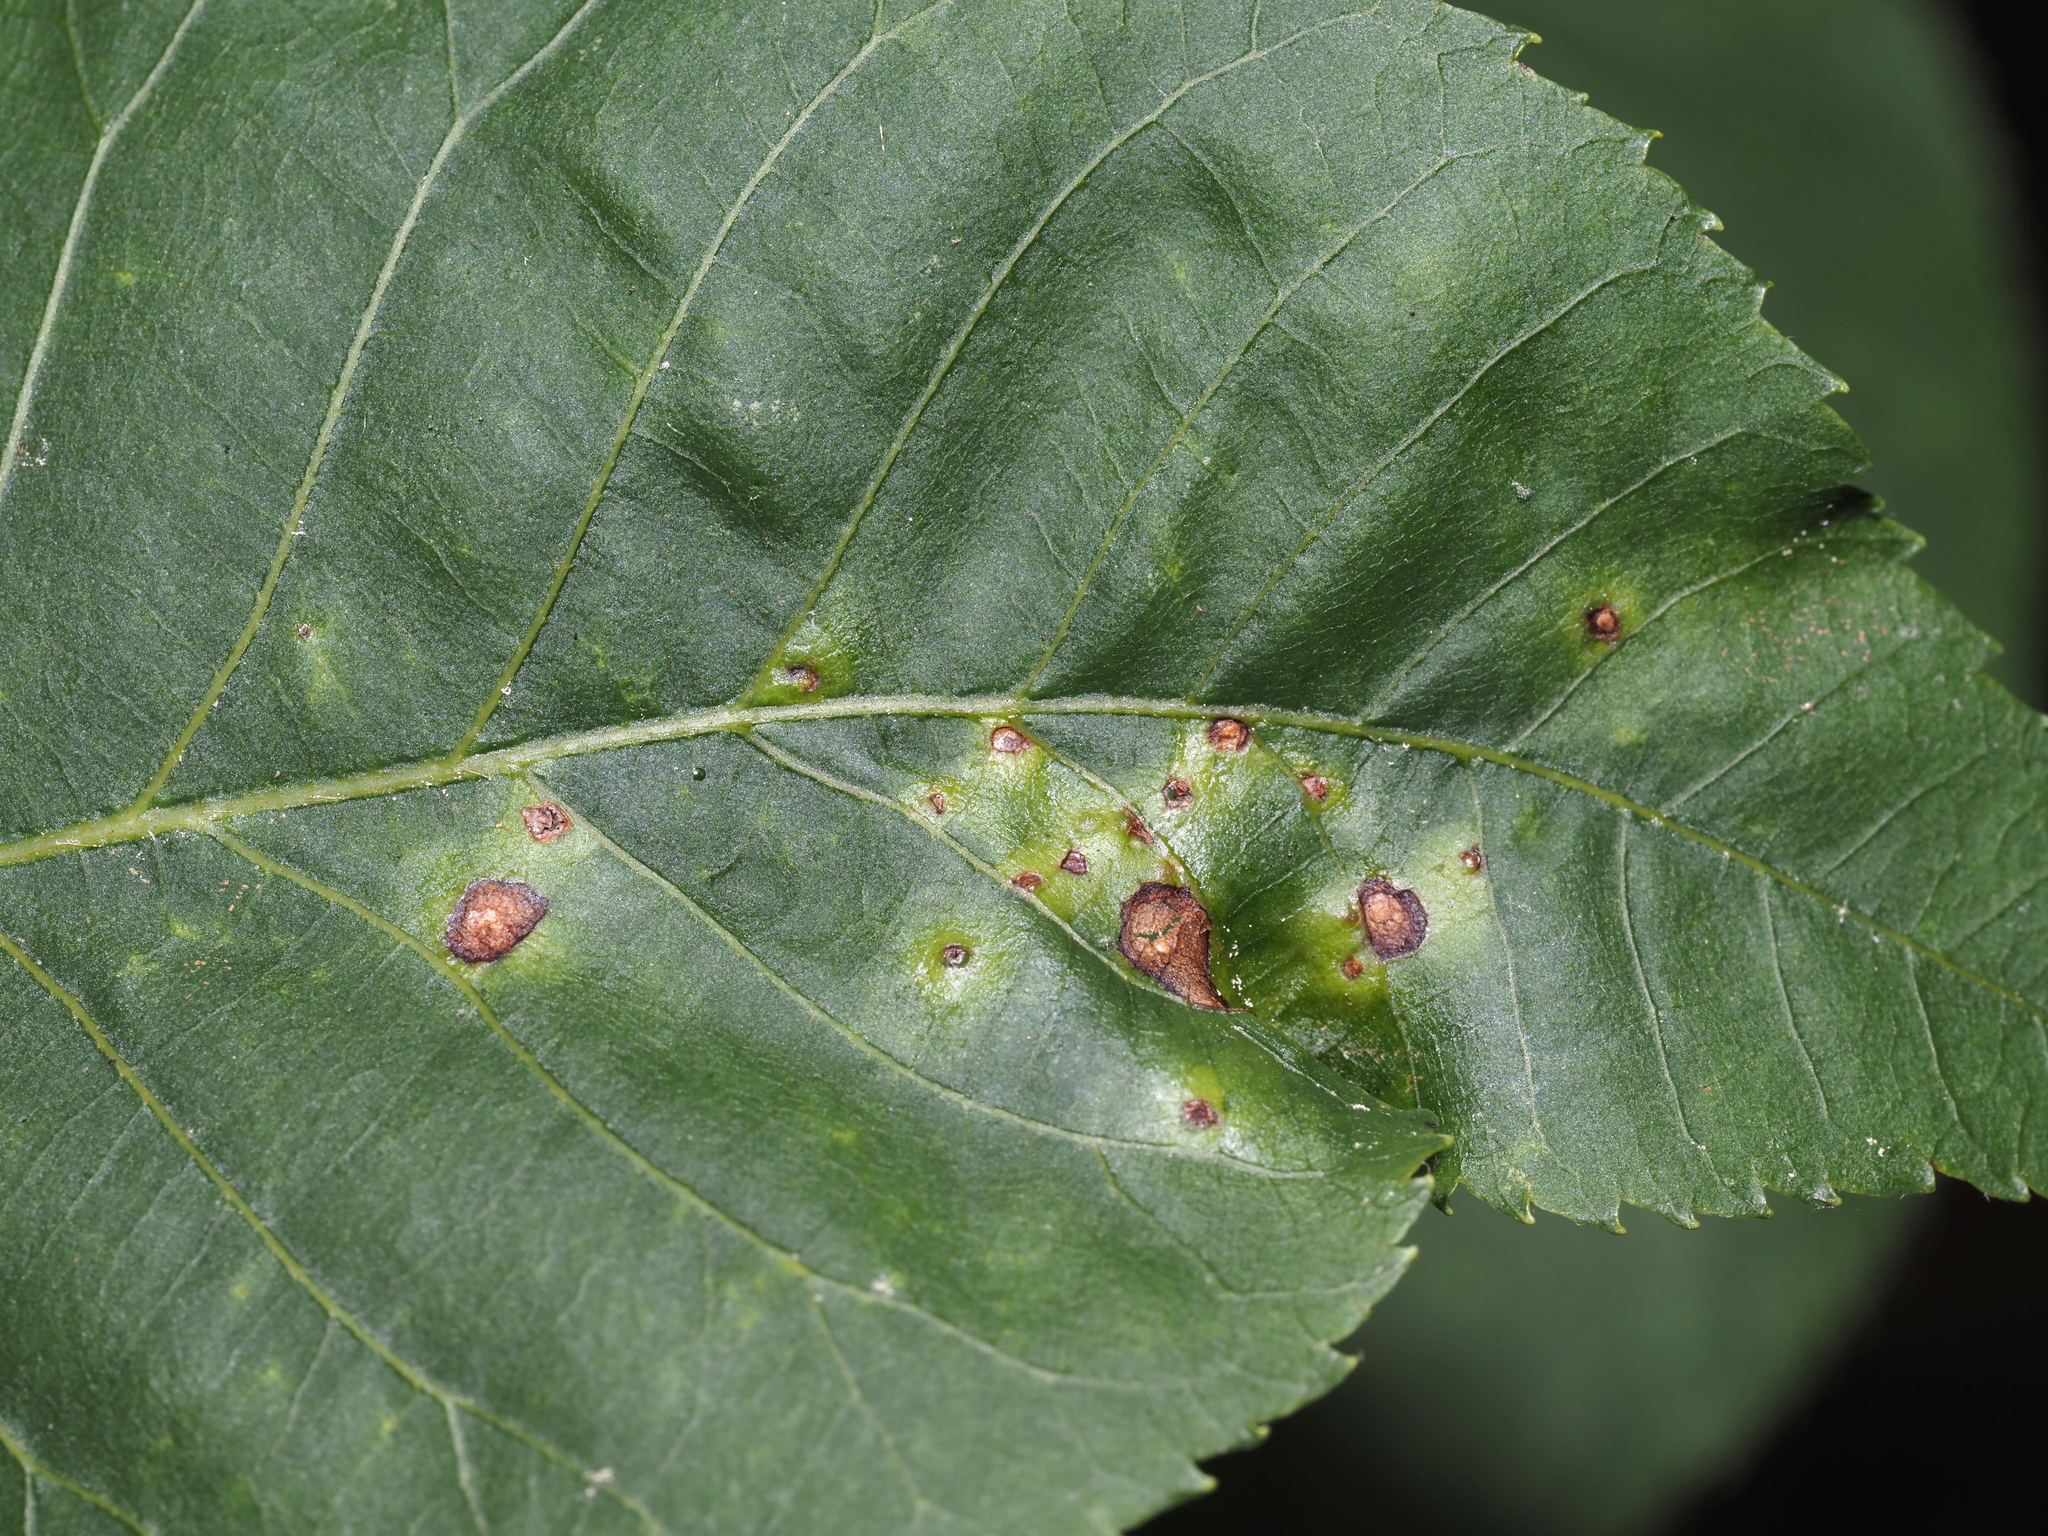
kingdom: Animalia
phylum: Arthropoda
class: Insecta
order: Diptera
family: Cecidomyiidae
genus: Caryomyia
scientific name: Caryomyia striolata
